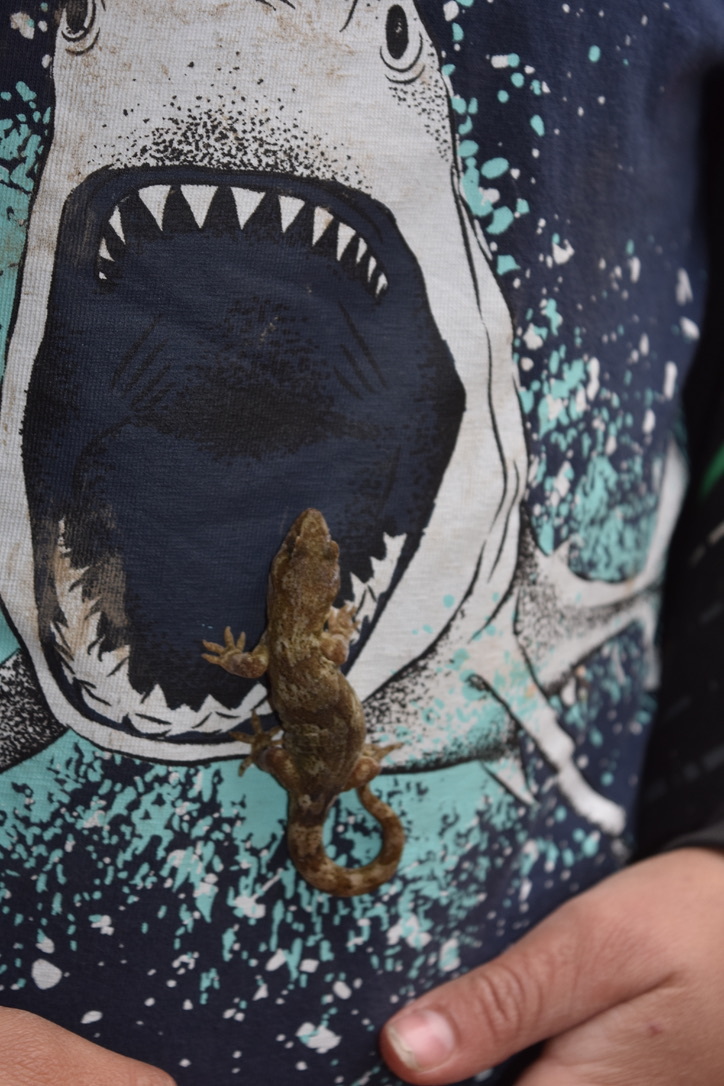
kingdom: Animalia
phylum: Chordata
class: Squamata
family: Diplodactylidae
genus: Woodworthia
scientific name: Woodworthia
